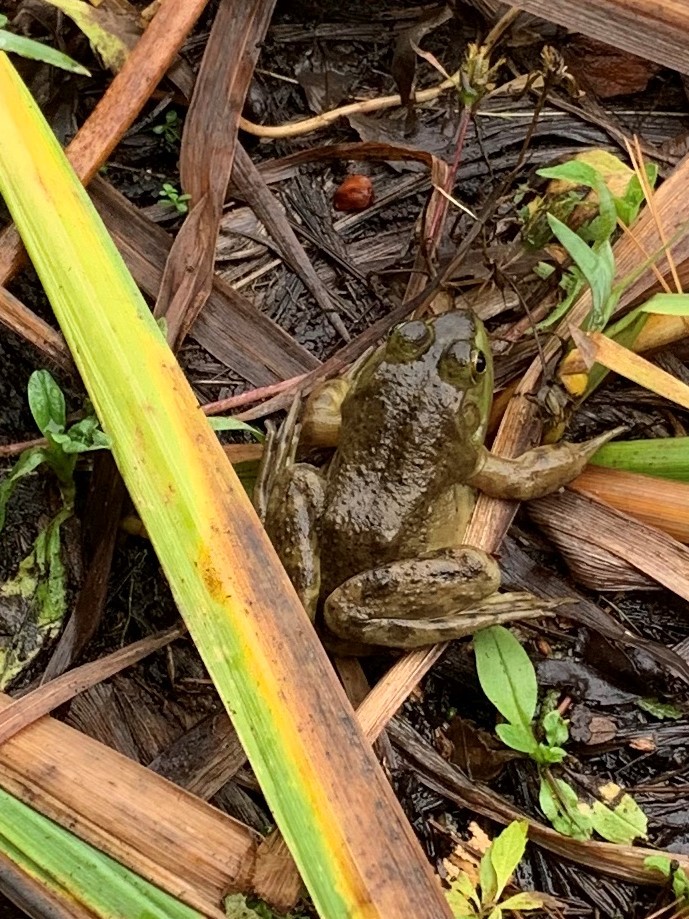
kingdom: Animalia
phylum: Chordata
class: Amphibia
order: Anura
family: Ranidae
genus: Lithobates
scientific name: Lithobates catesbeianus
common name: American bullfrog
